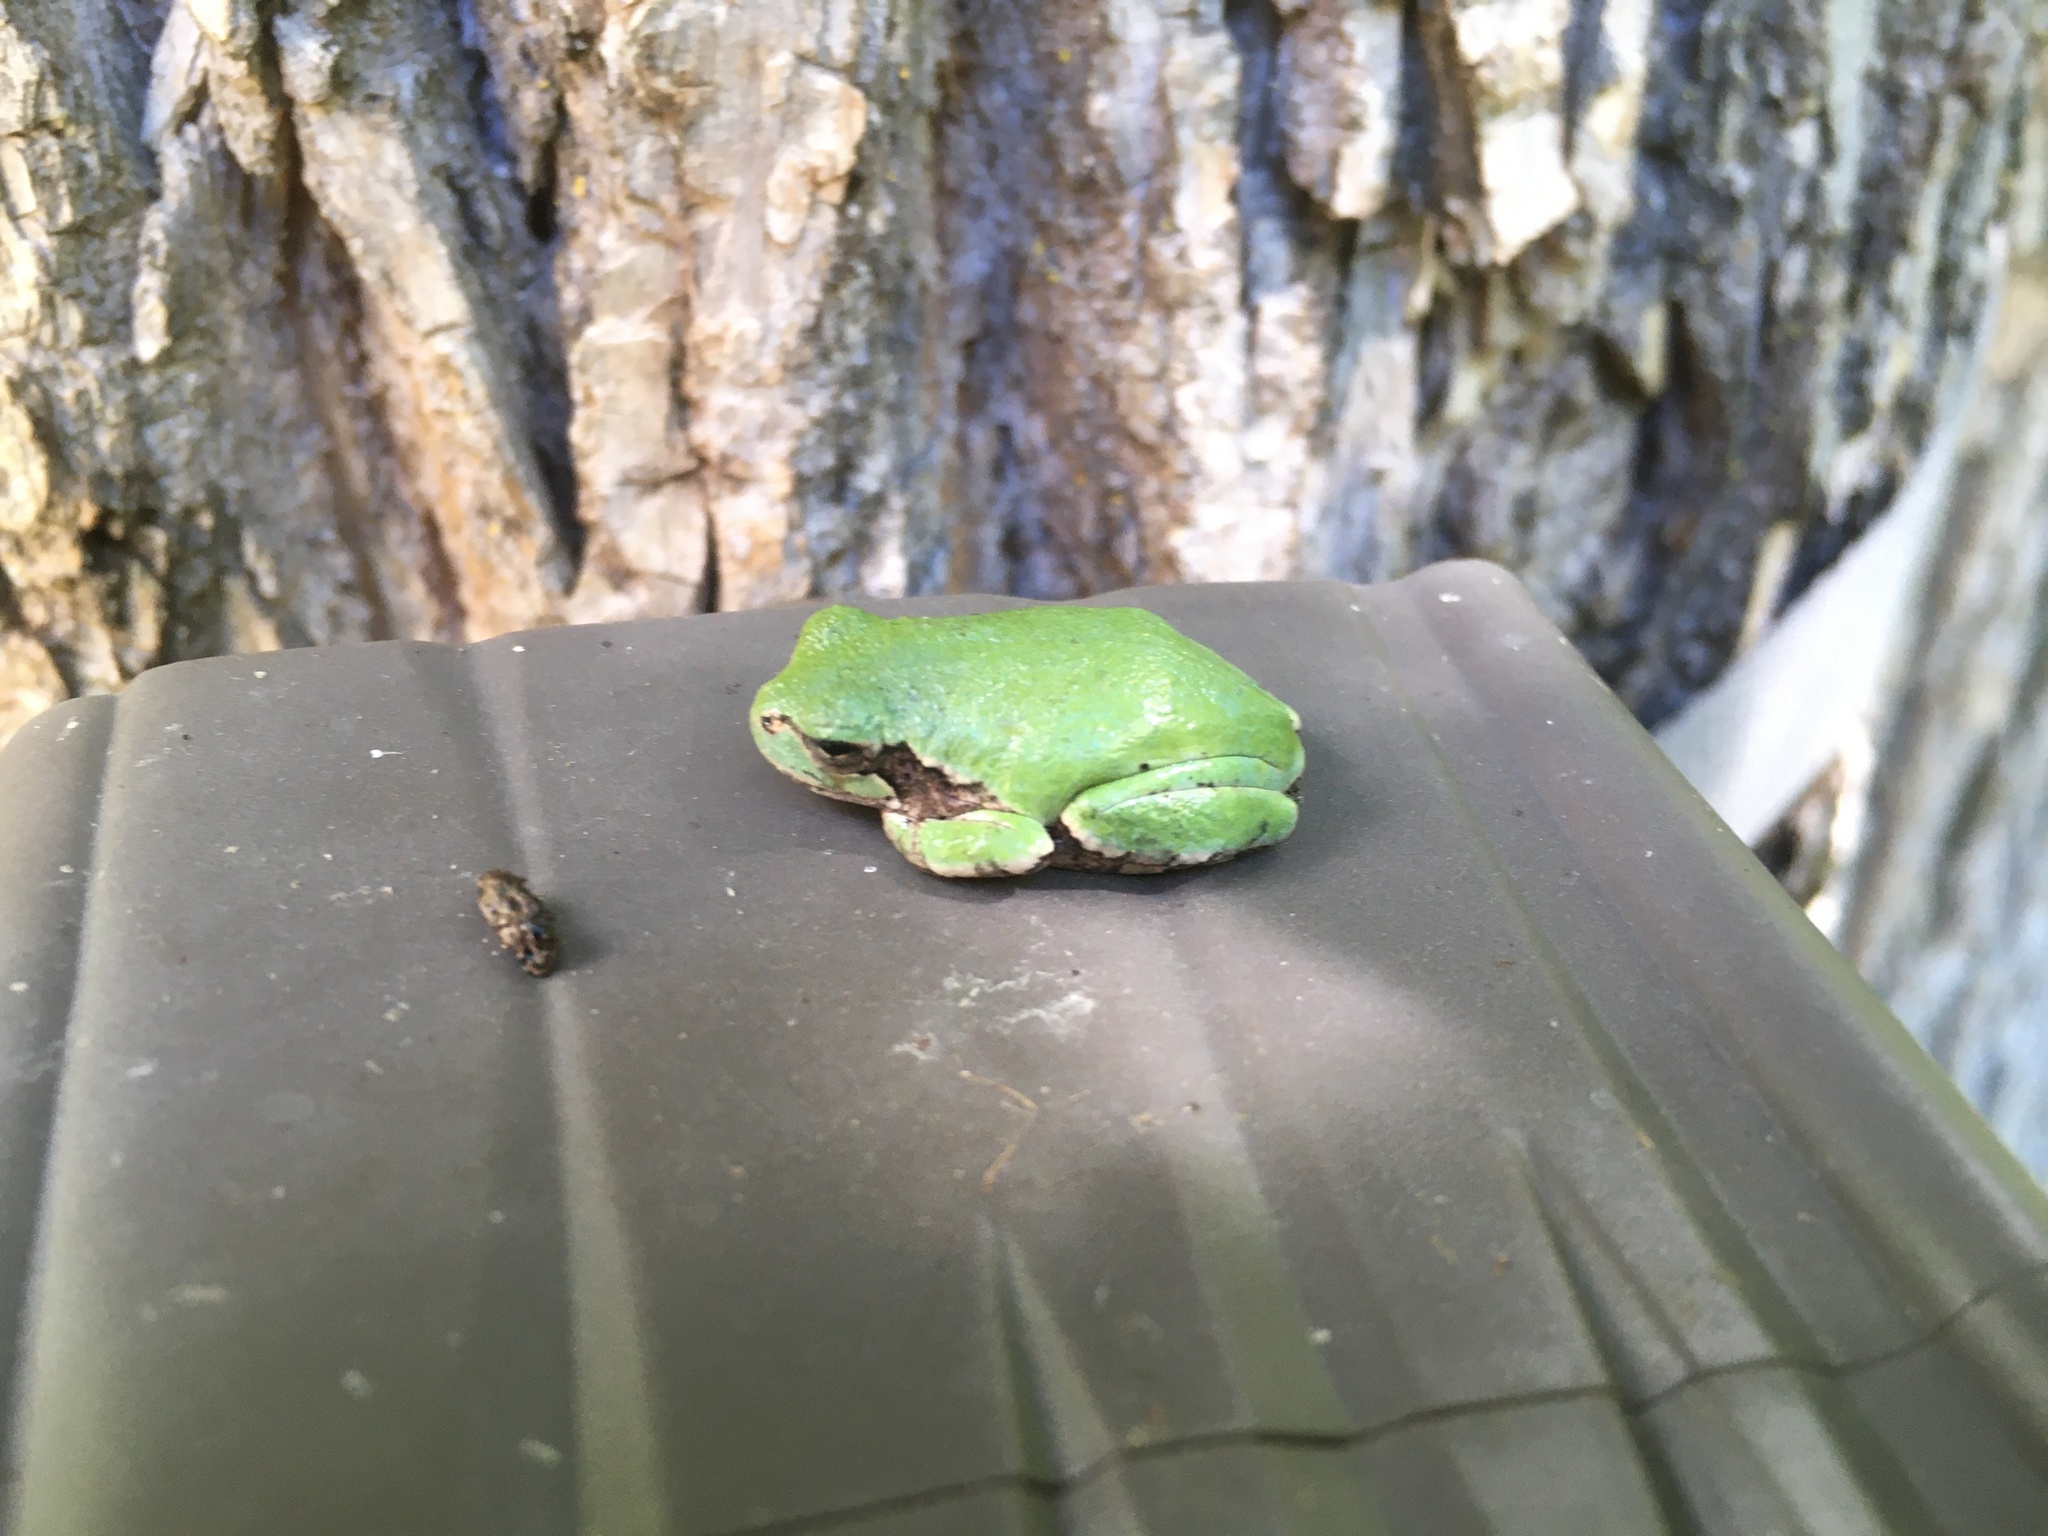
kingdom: Animalia
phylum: Chordata
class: Amphibia
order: Anura
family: Hylidae
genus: Hyla
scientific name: Hyla
